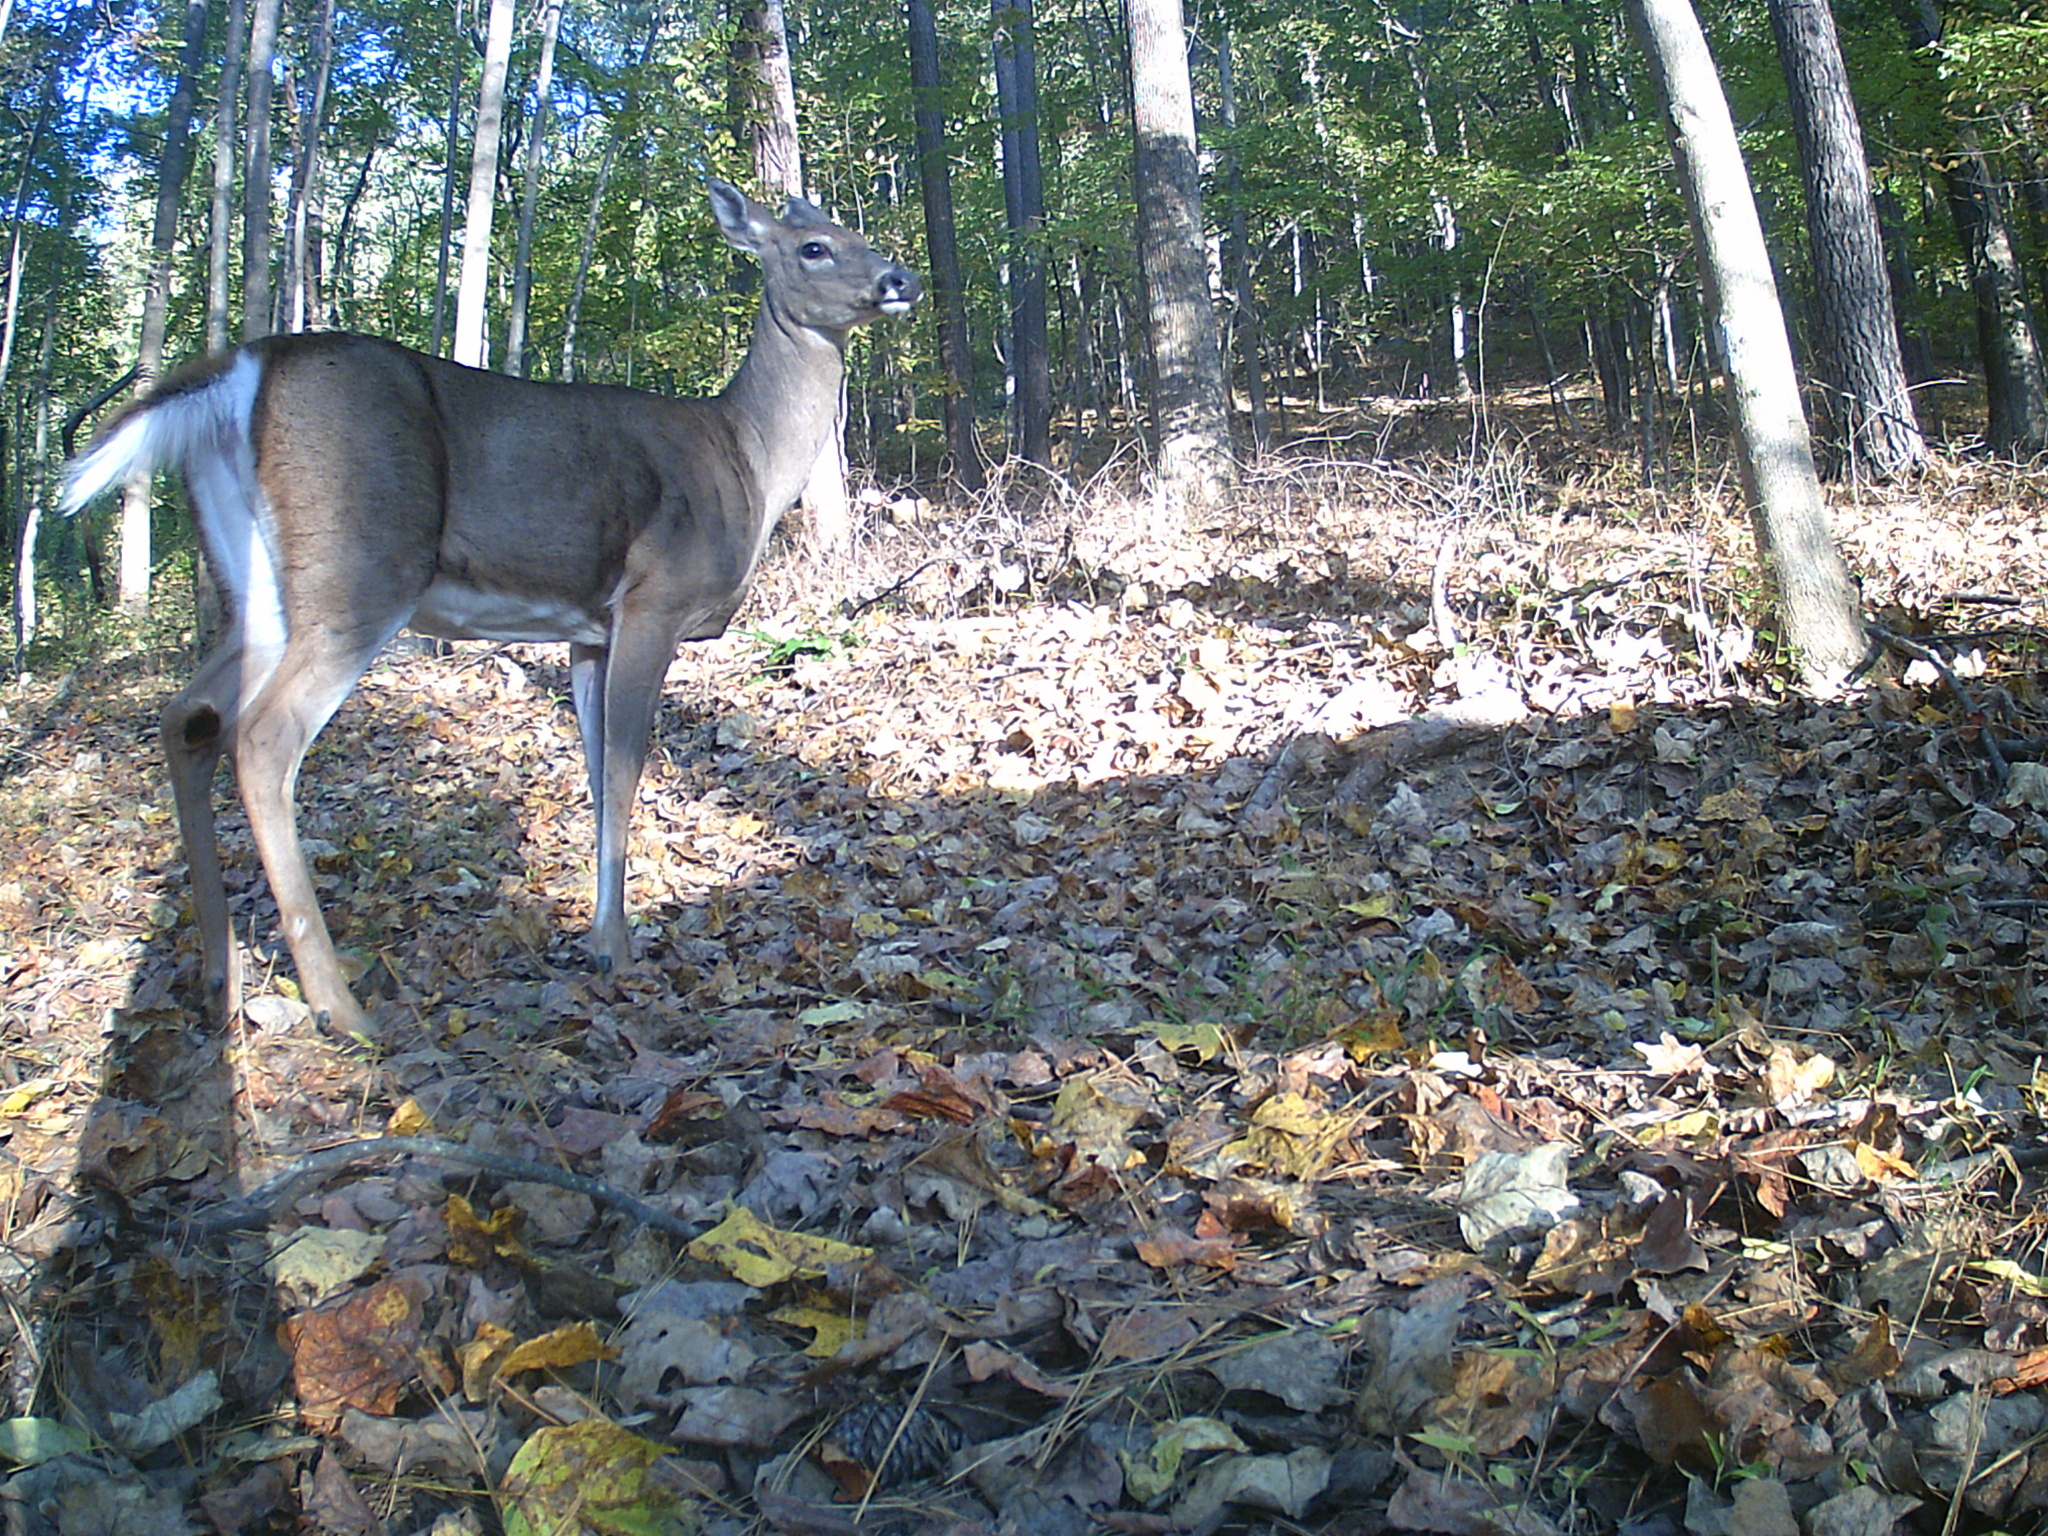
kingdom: Animalia
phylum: Chordata
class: Mammalia
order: Artiodactyla
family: Cervidae
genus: Odocoileus
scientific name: Odocoileus virginianus
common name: White-tailed deer
